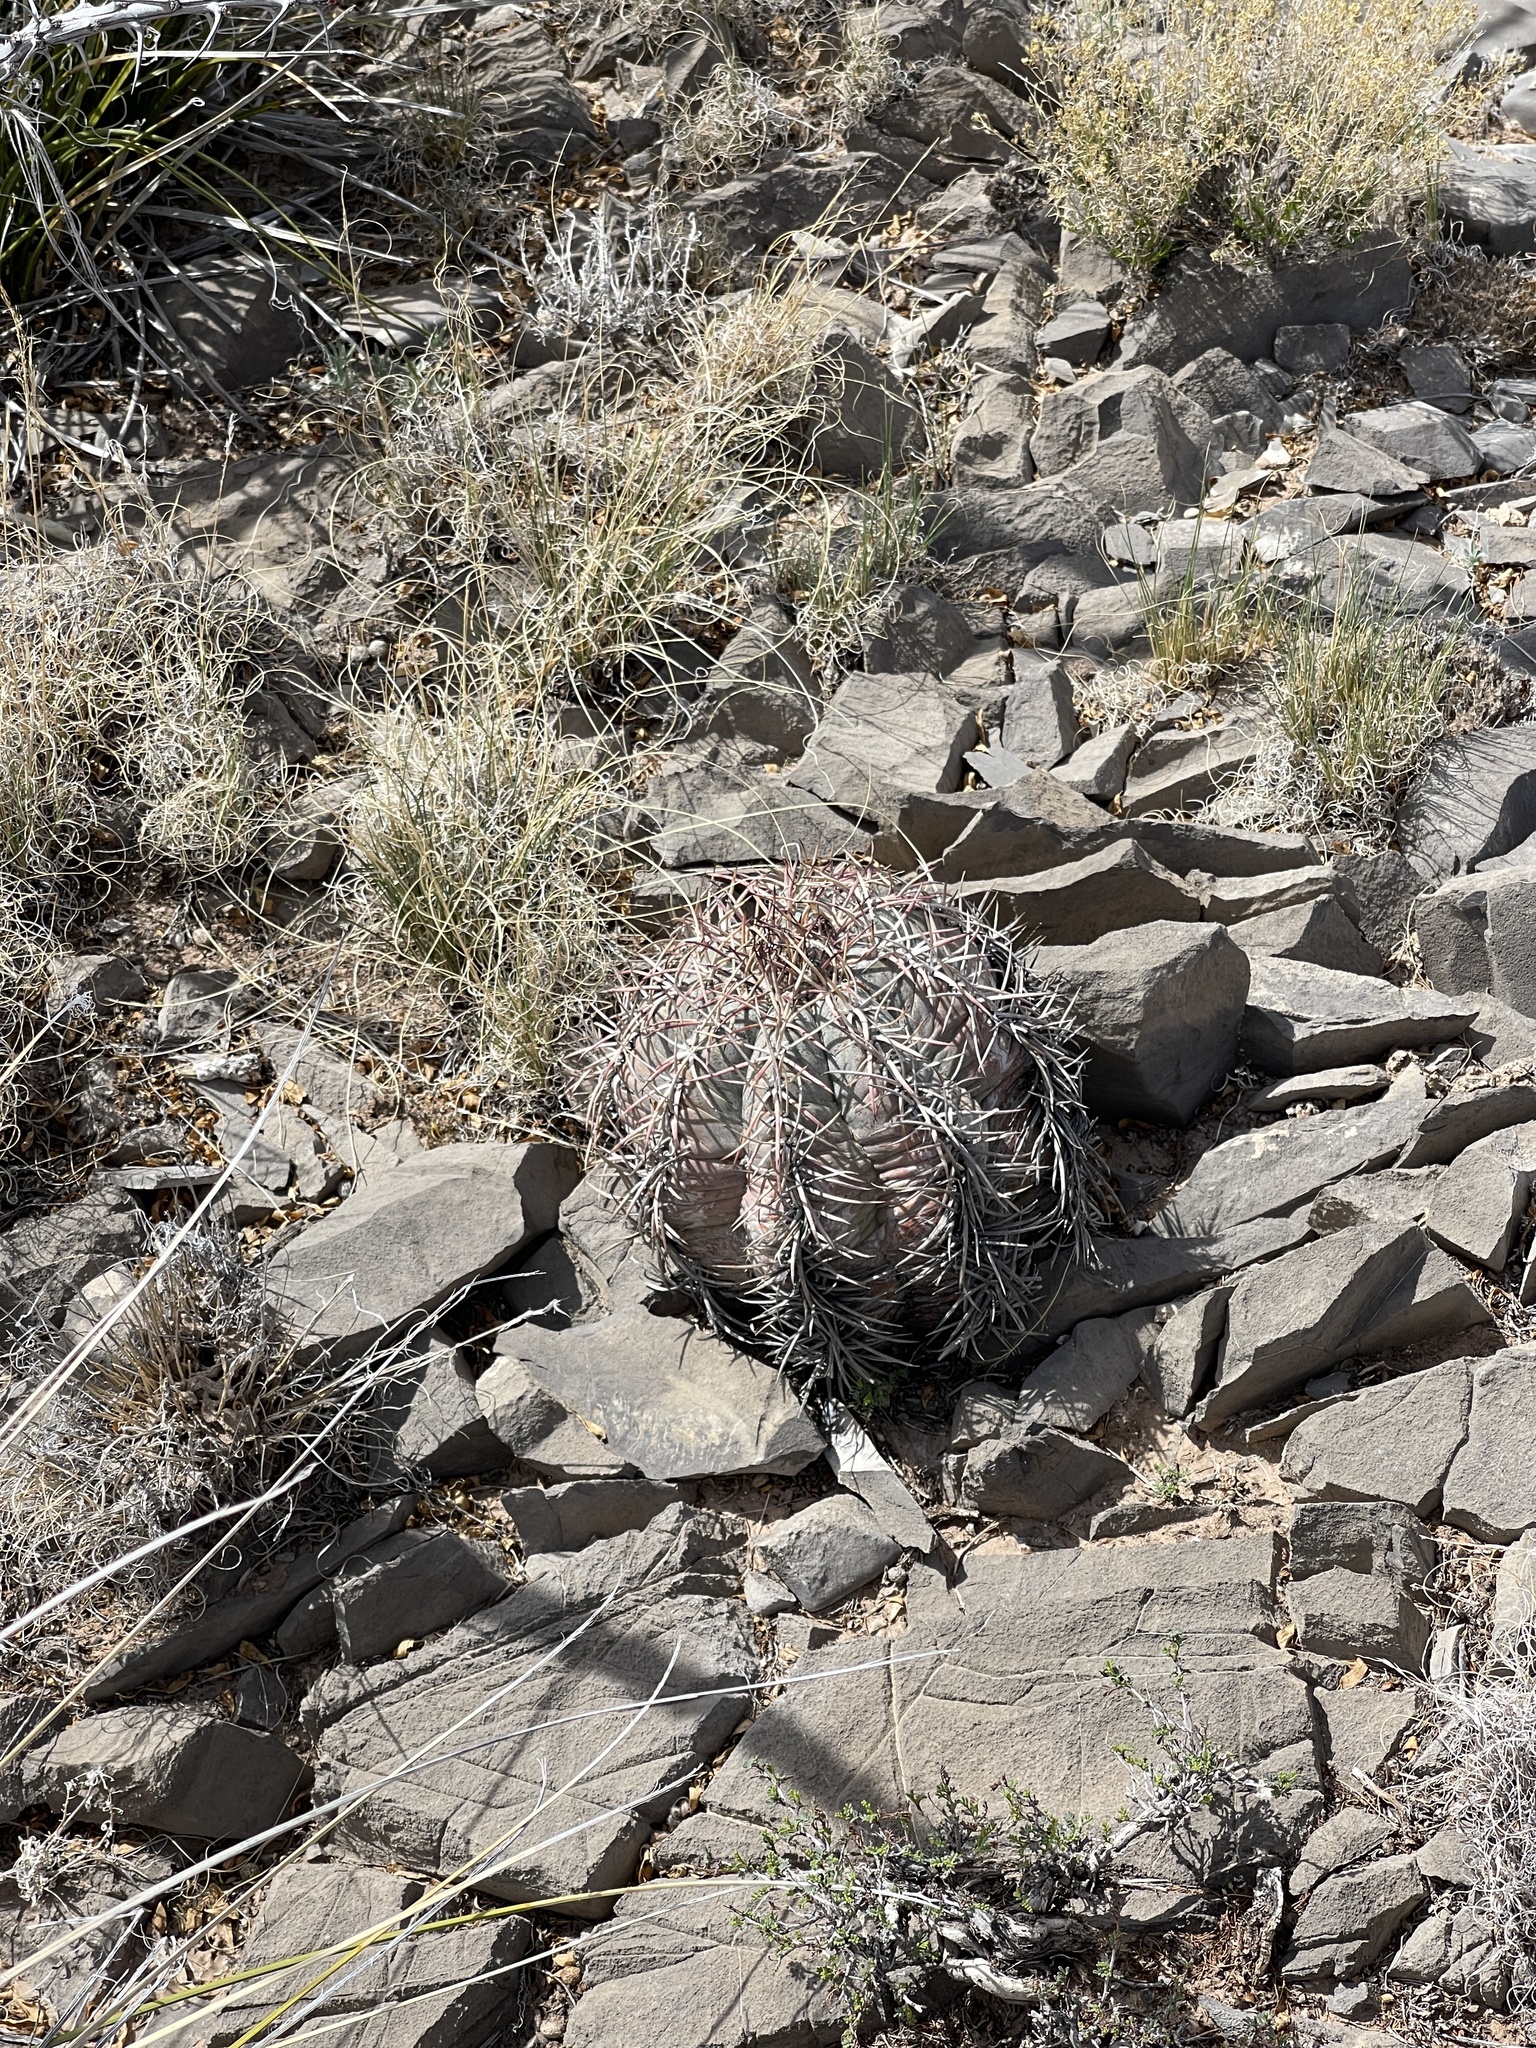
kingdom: Plantae
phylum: Tracheophyta
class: Magnoliopsida
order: Caryophyllales
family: Cactaceae
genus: Echinocactus
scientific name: Echinocactus horizonthalonius
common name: Devilshead
